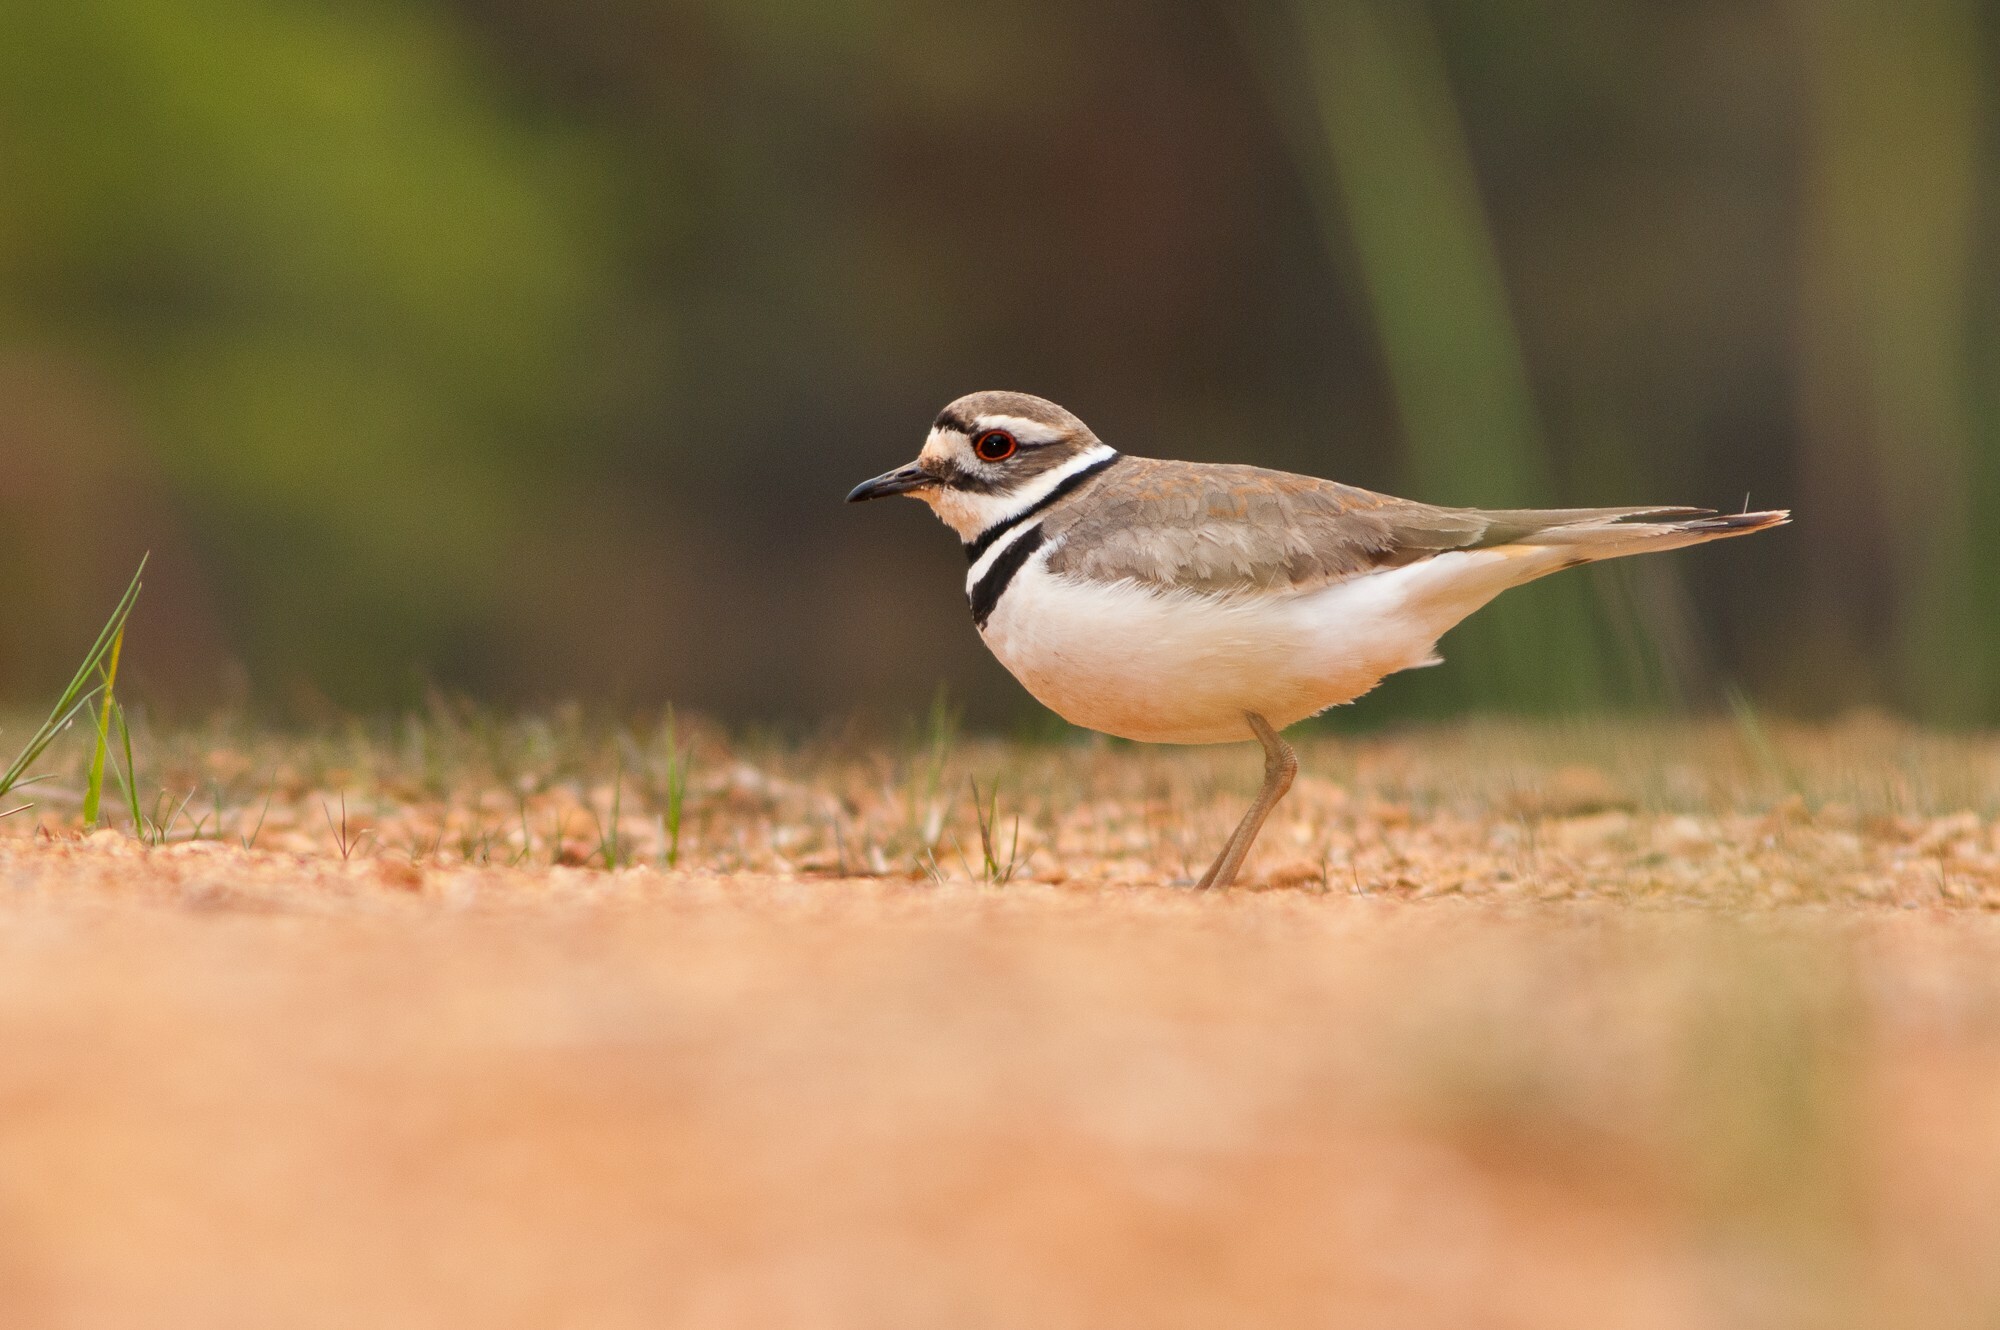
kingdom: Animalia
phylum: Chordata
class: Aves
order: Charadriiformes
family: Charadriidae
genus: Charadrius
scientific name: Charadrius vociferus
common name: Killdeer
